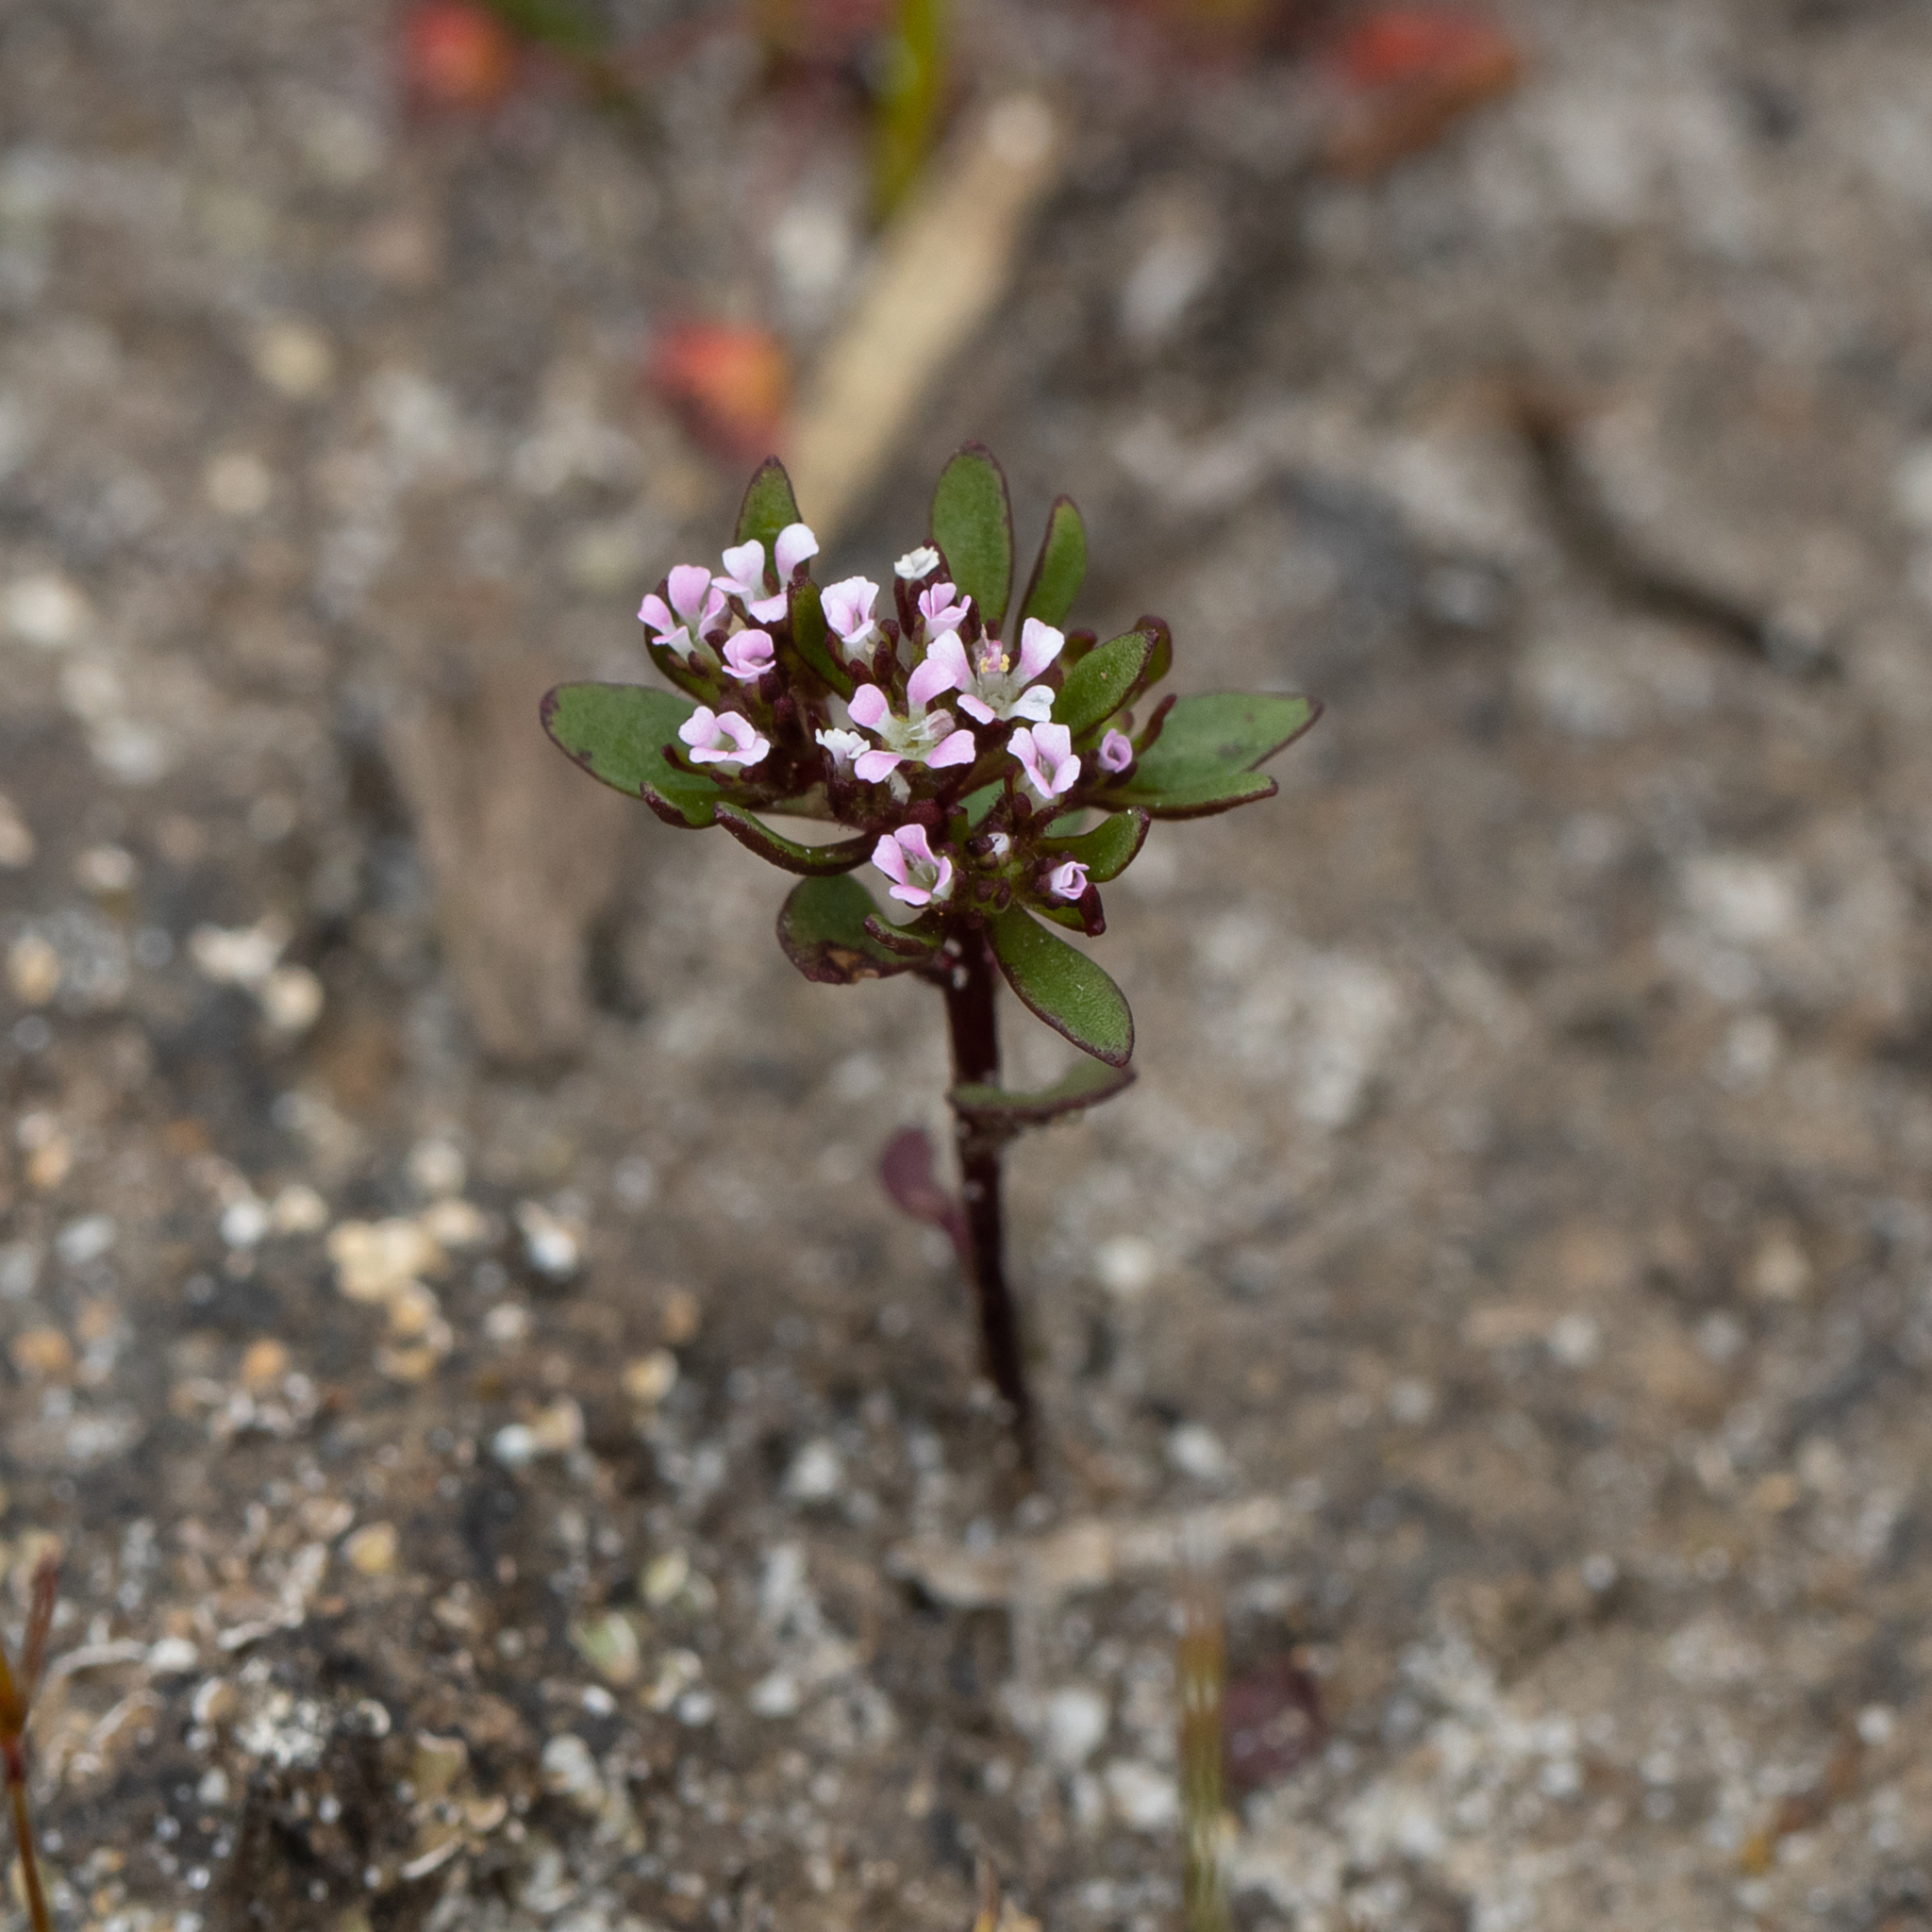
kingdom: Plantae
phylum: Tracheophyta
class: Magnoliopsida
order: Asterales
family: Stylidiaceae
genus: Levenhookia
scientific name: Levenhookia pusilla
